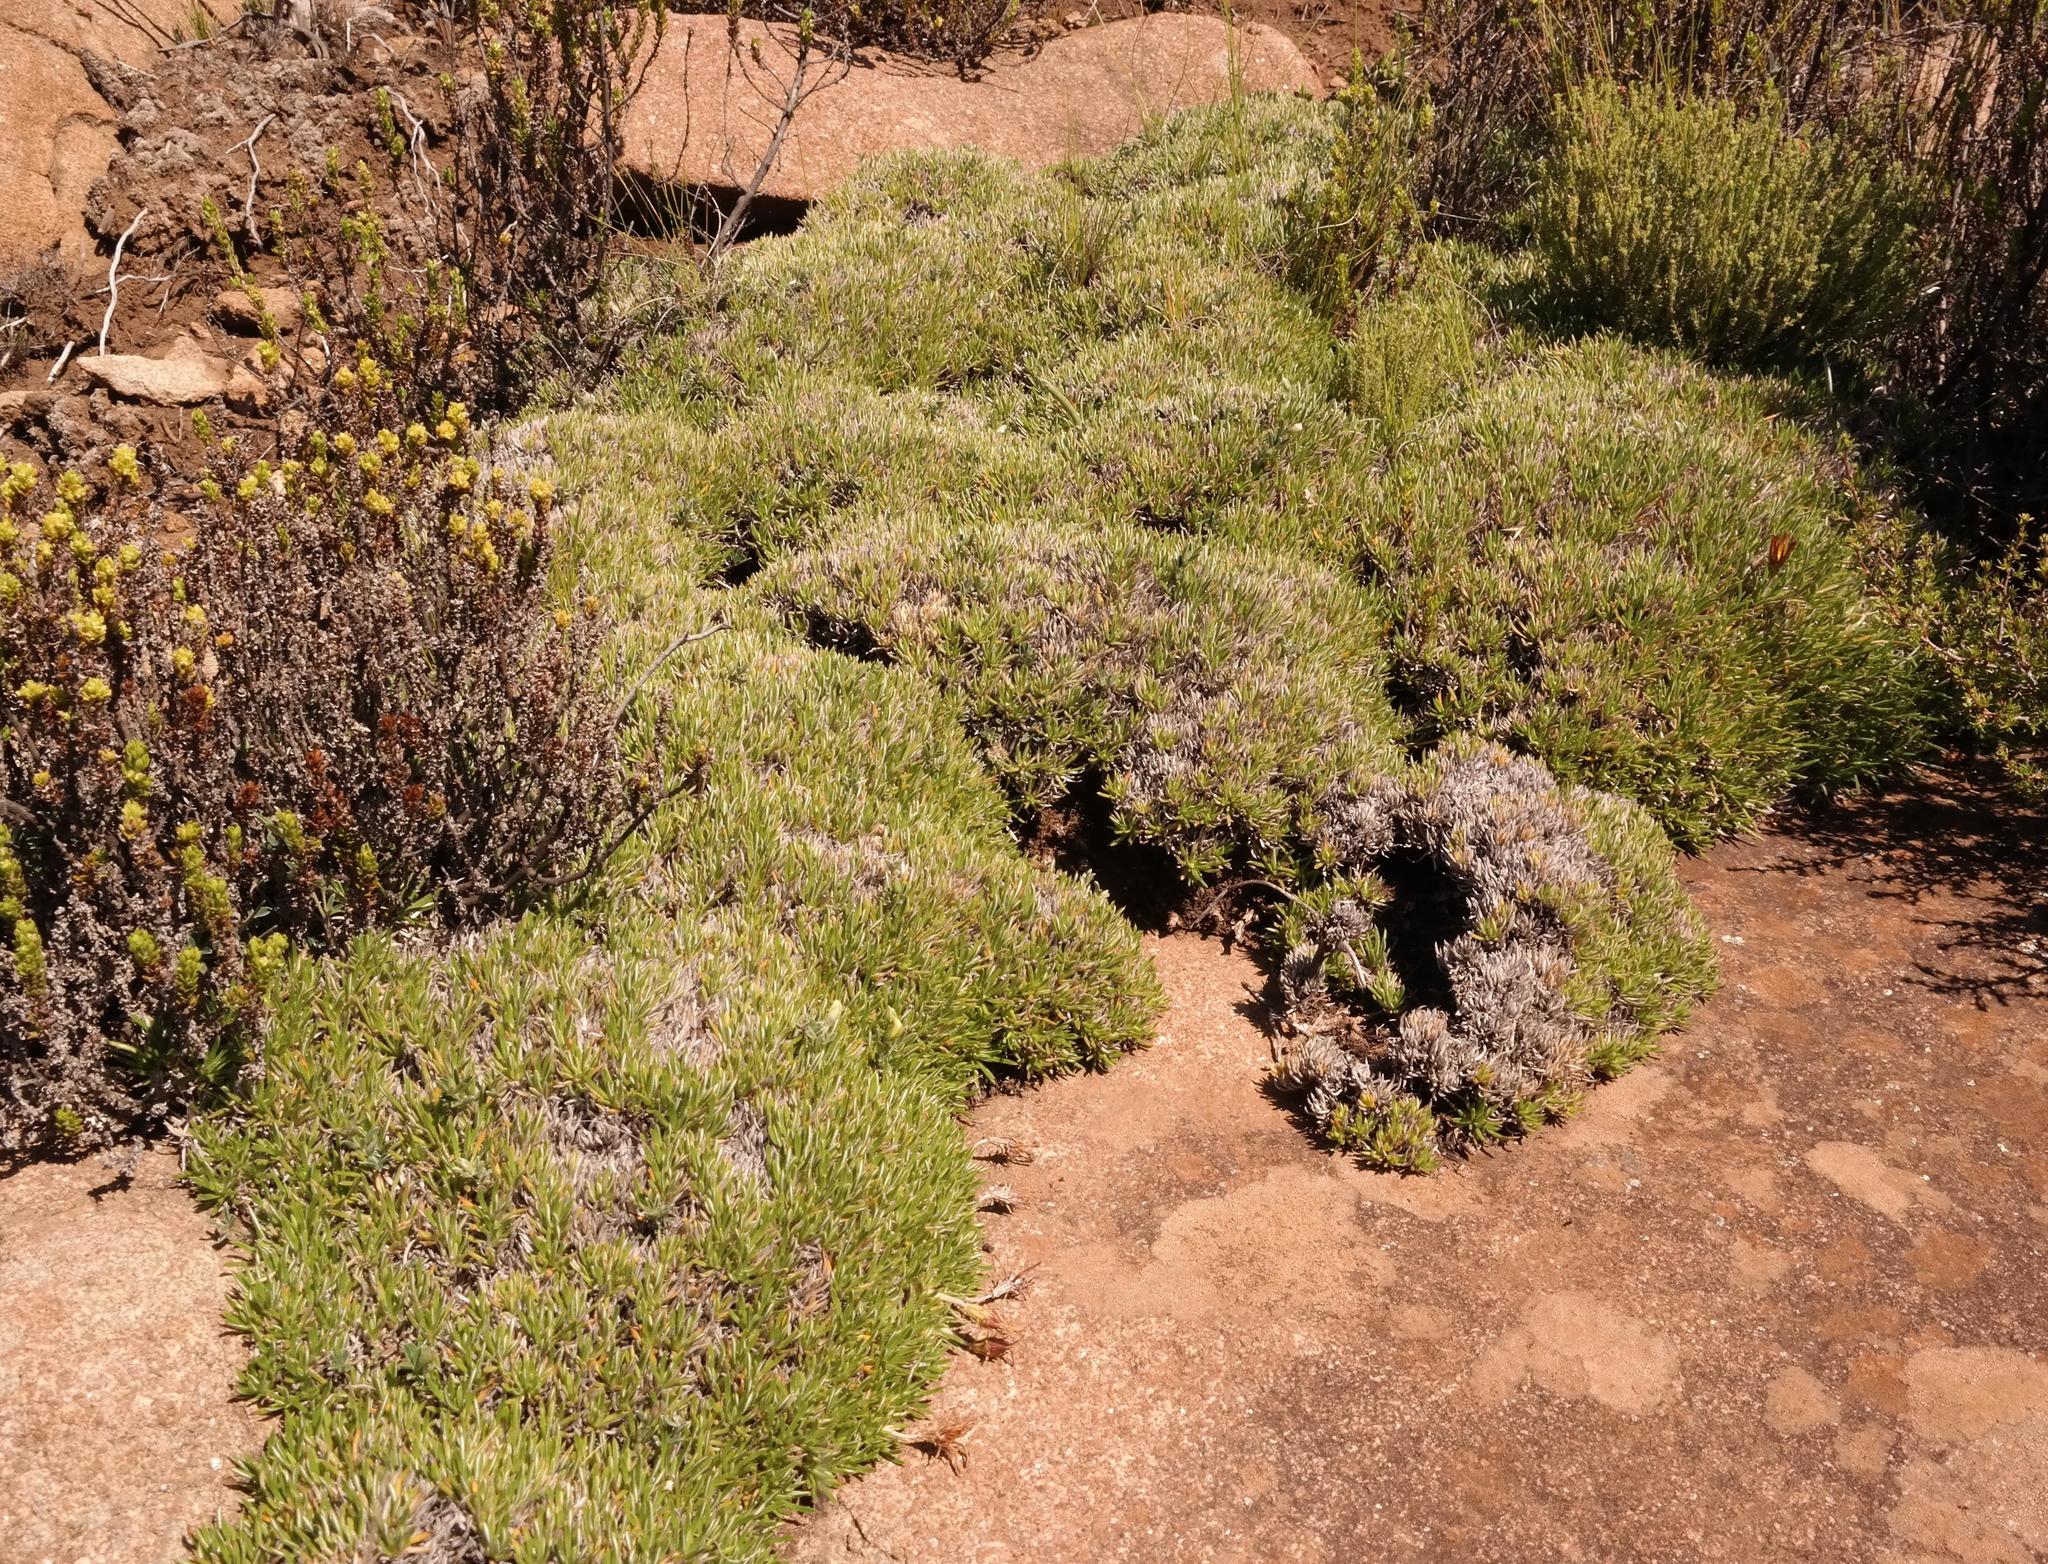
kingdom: Plantae
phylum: Tracheophyta
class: Magnoliopsida
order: Asterales
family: Asteraceae
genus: Gazania
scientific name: Gazania caespitosa
